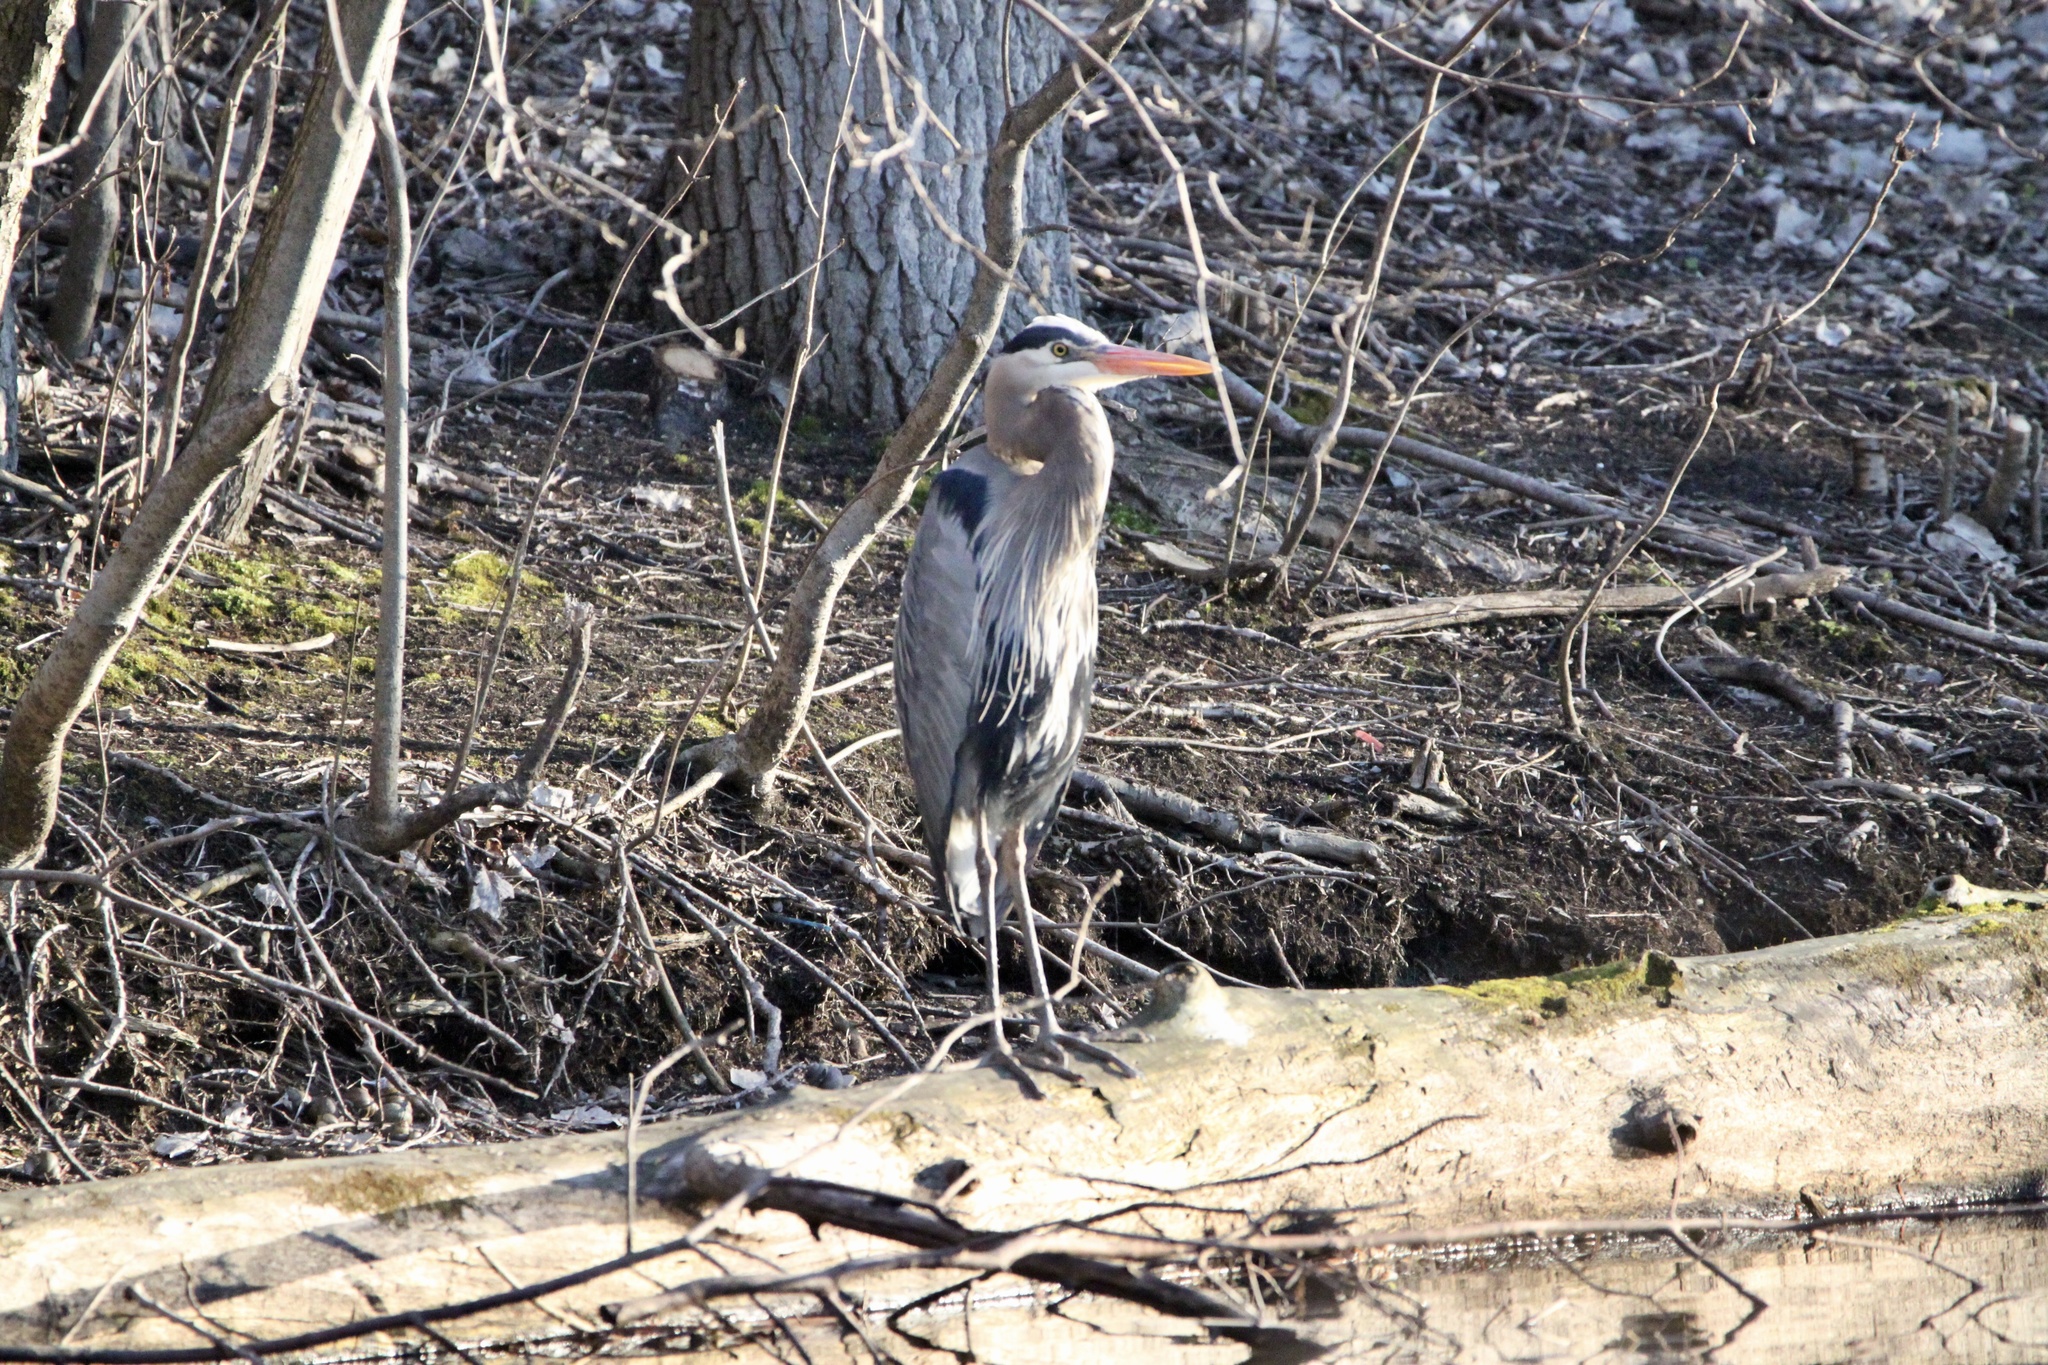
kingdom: Animalia
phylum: Chordata
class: Aves
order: Pelecaniformes
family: Ardeidae
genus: Ardea
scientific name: Ardea herodias
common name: Great blue heron
